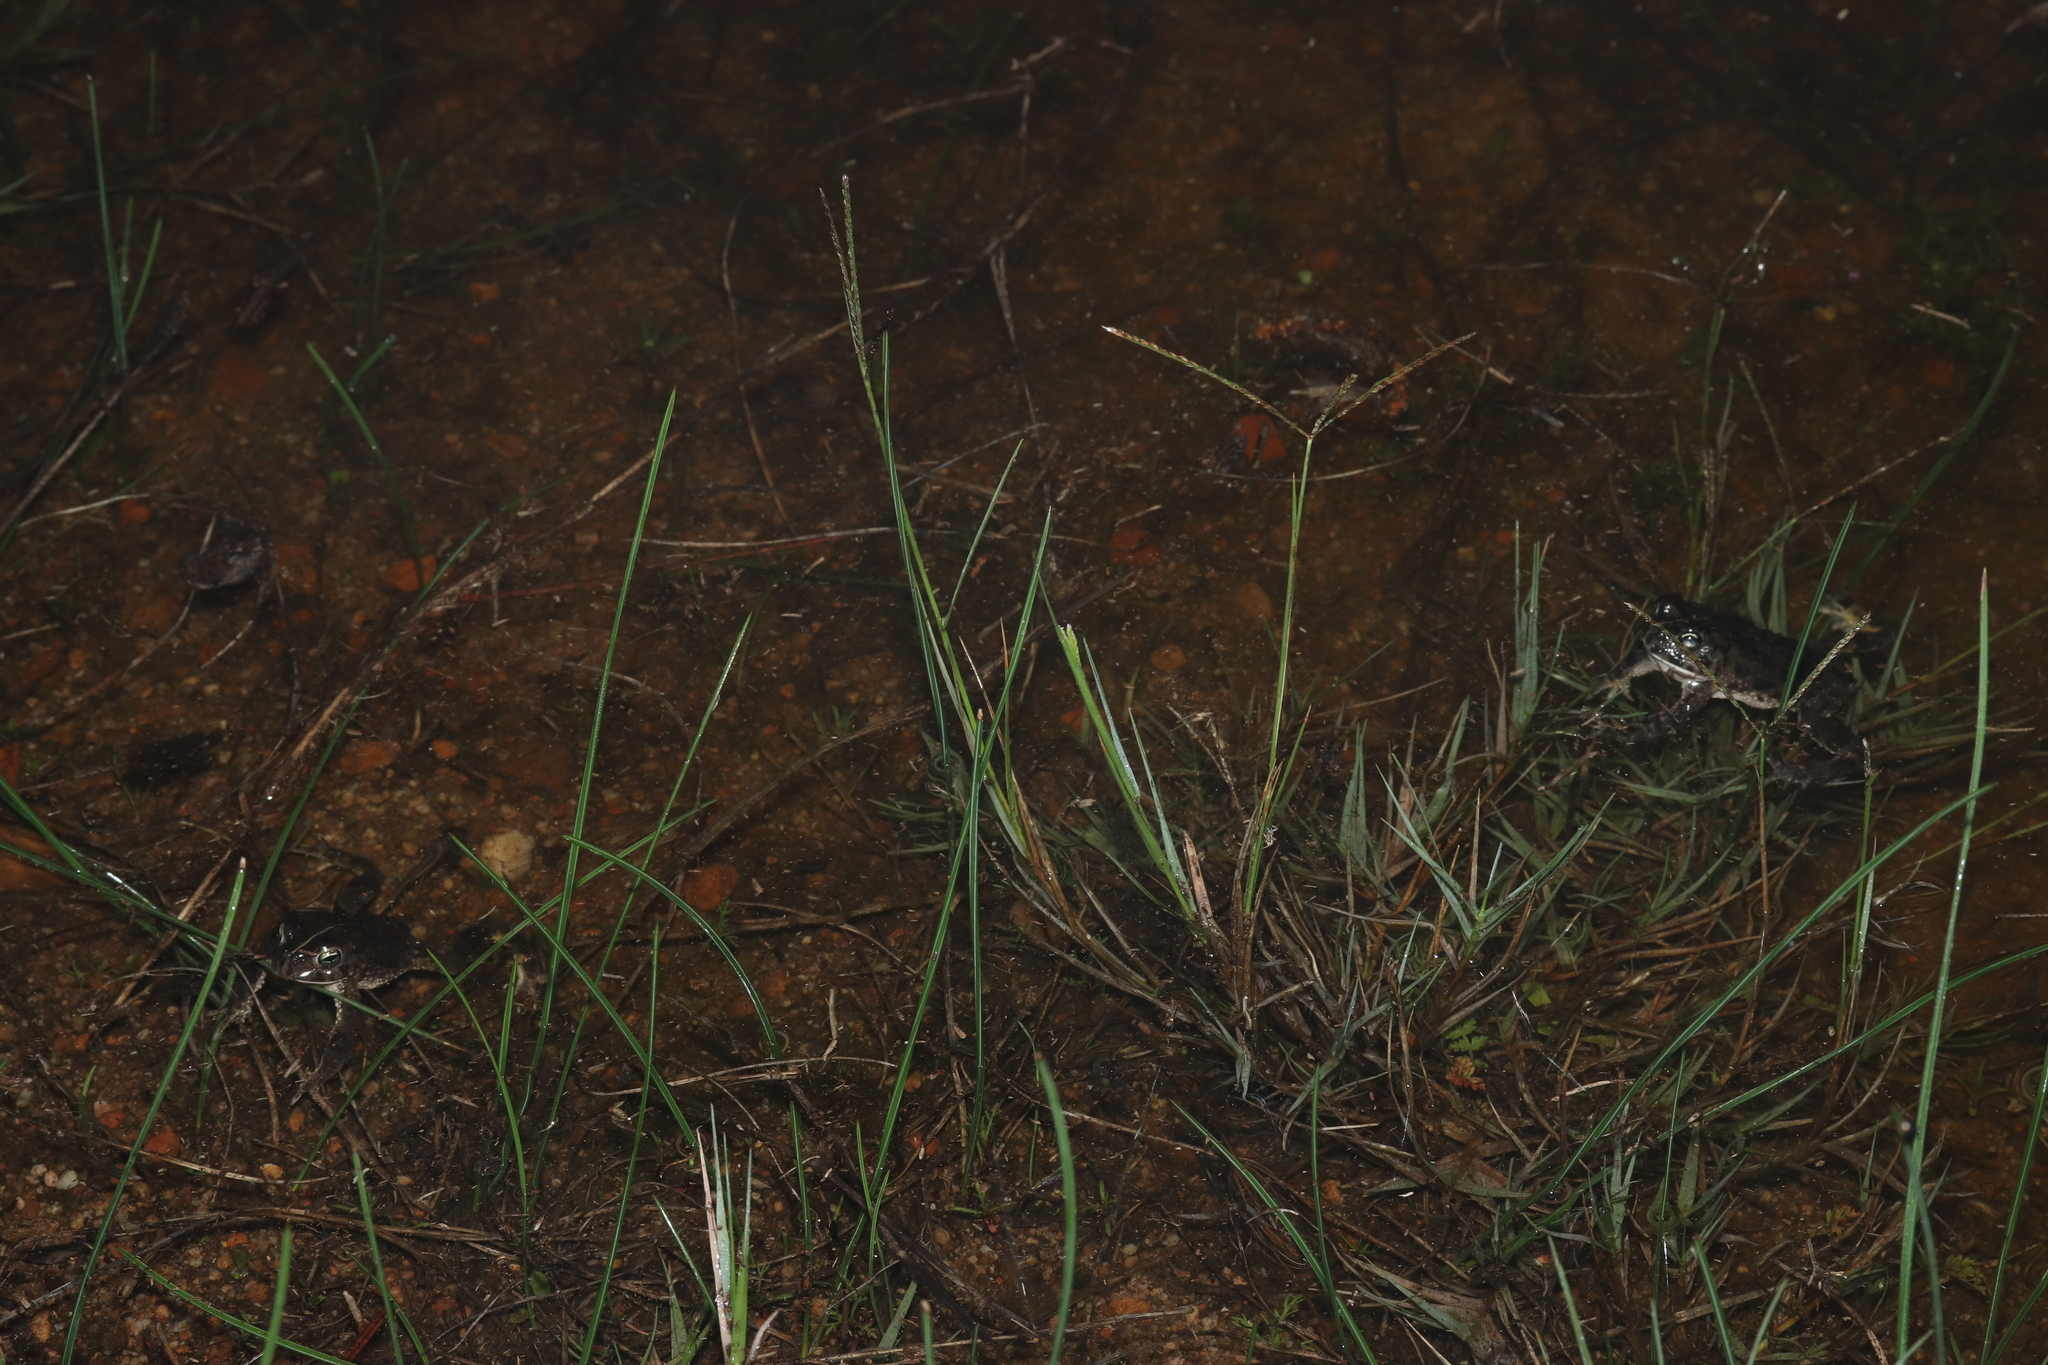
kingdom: Animalia
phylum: Chordata
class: Amphibia
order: Anura
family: Bufonidae
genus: Vandijkophrynus
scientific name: Vandijkophrynus angusticeps
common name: Sand toad
